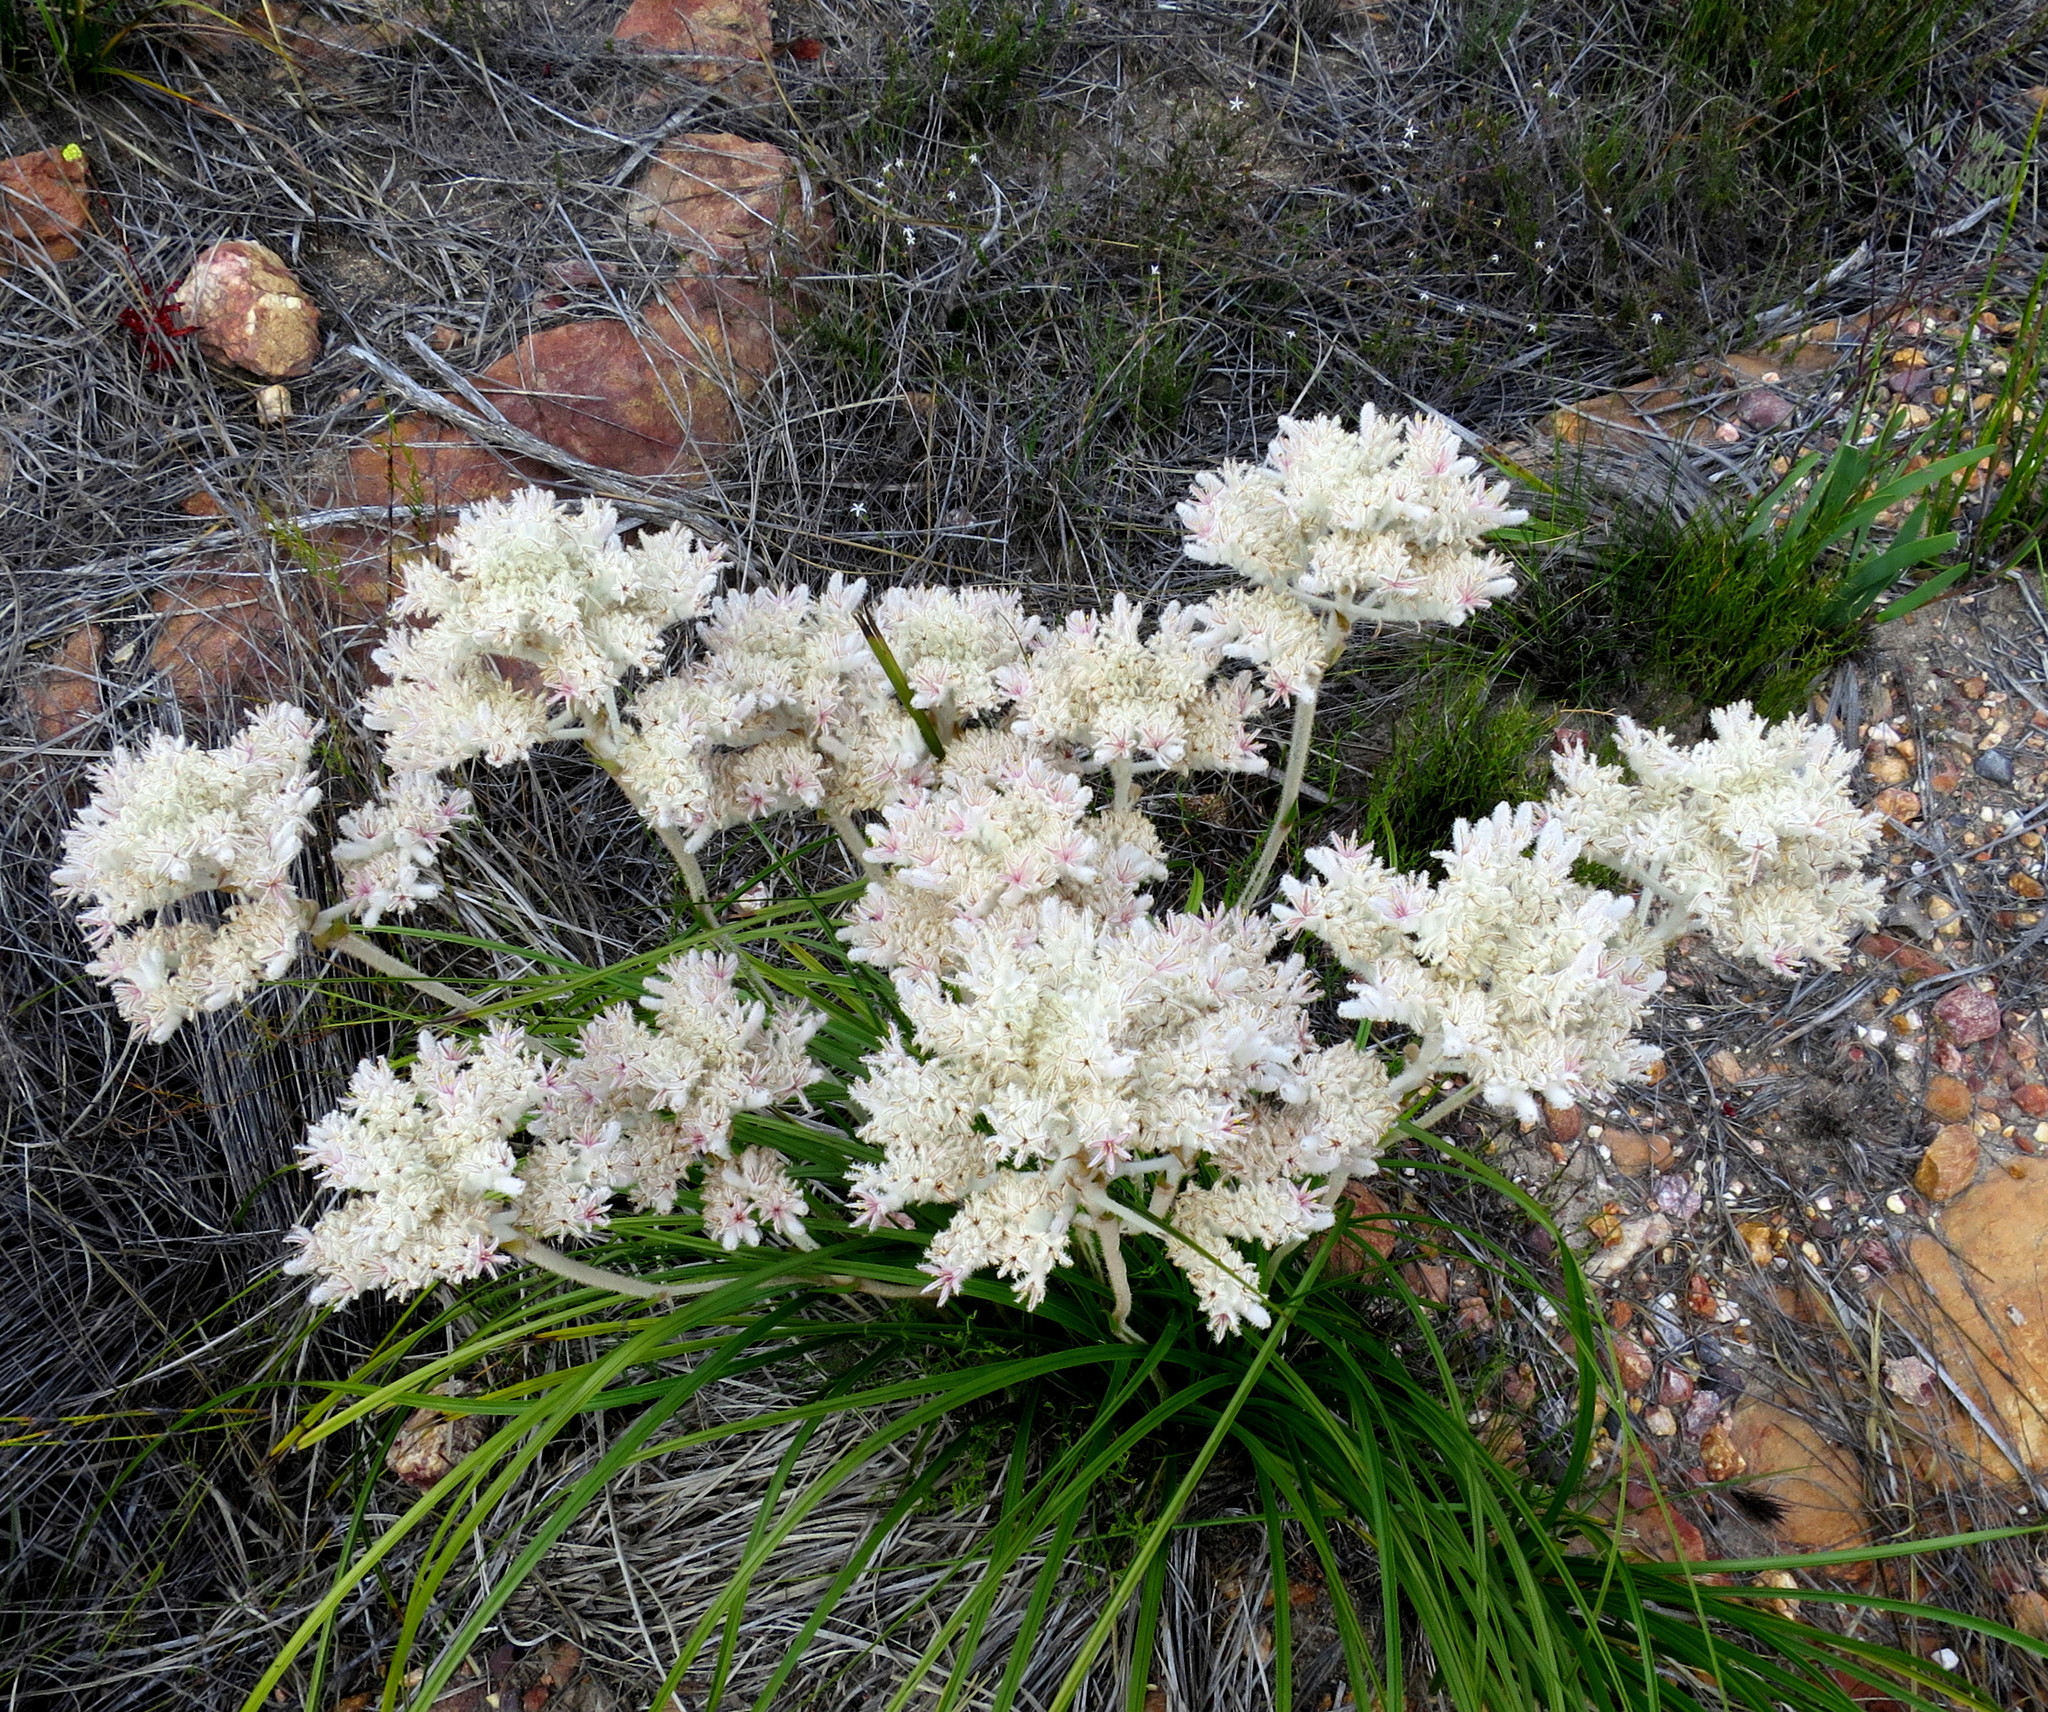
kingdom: Plantae
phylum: Tracheophyta
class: Liliopsida
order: Asparagales
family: Lanariaceae
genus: Lanaria
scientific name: Lanaria lanata
